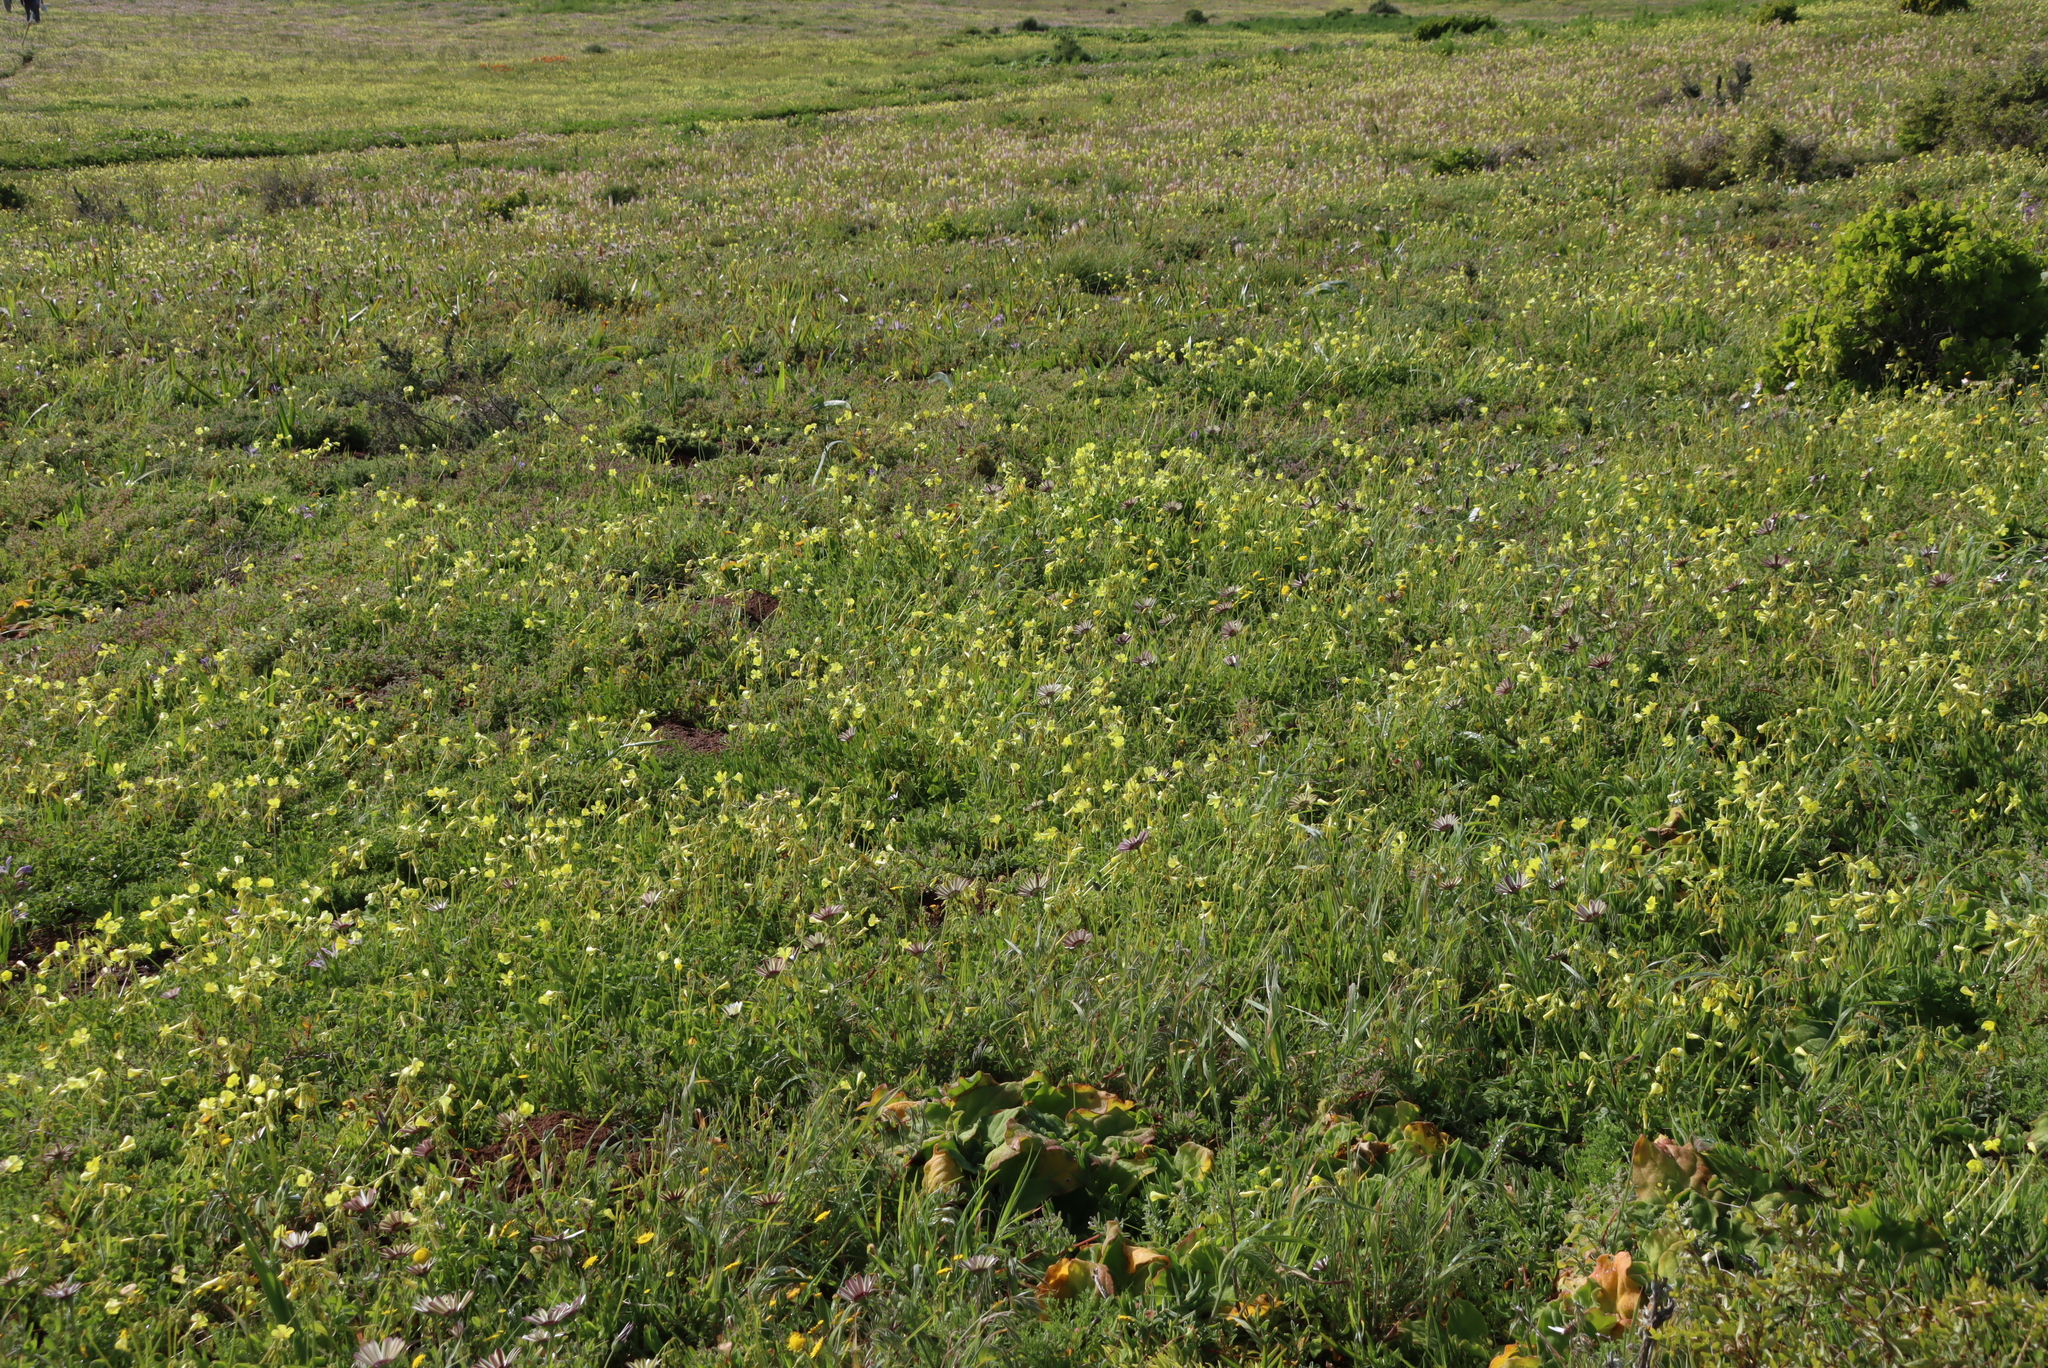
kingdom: Plantae
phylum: Tracheophyta
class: Magnoliopsida
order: Oxalidales
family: Oxalidaceae
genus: Oxalis
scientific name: Oxalis pes-caprae
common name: Bermuda-buttercup
